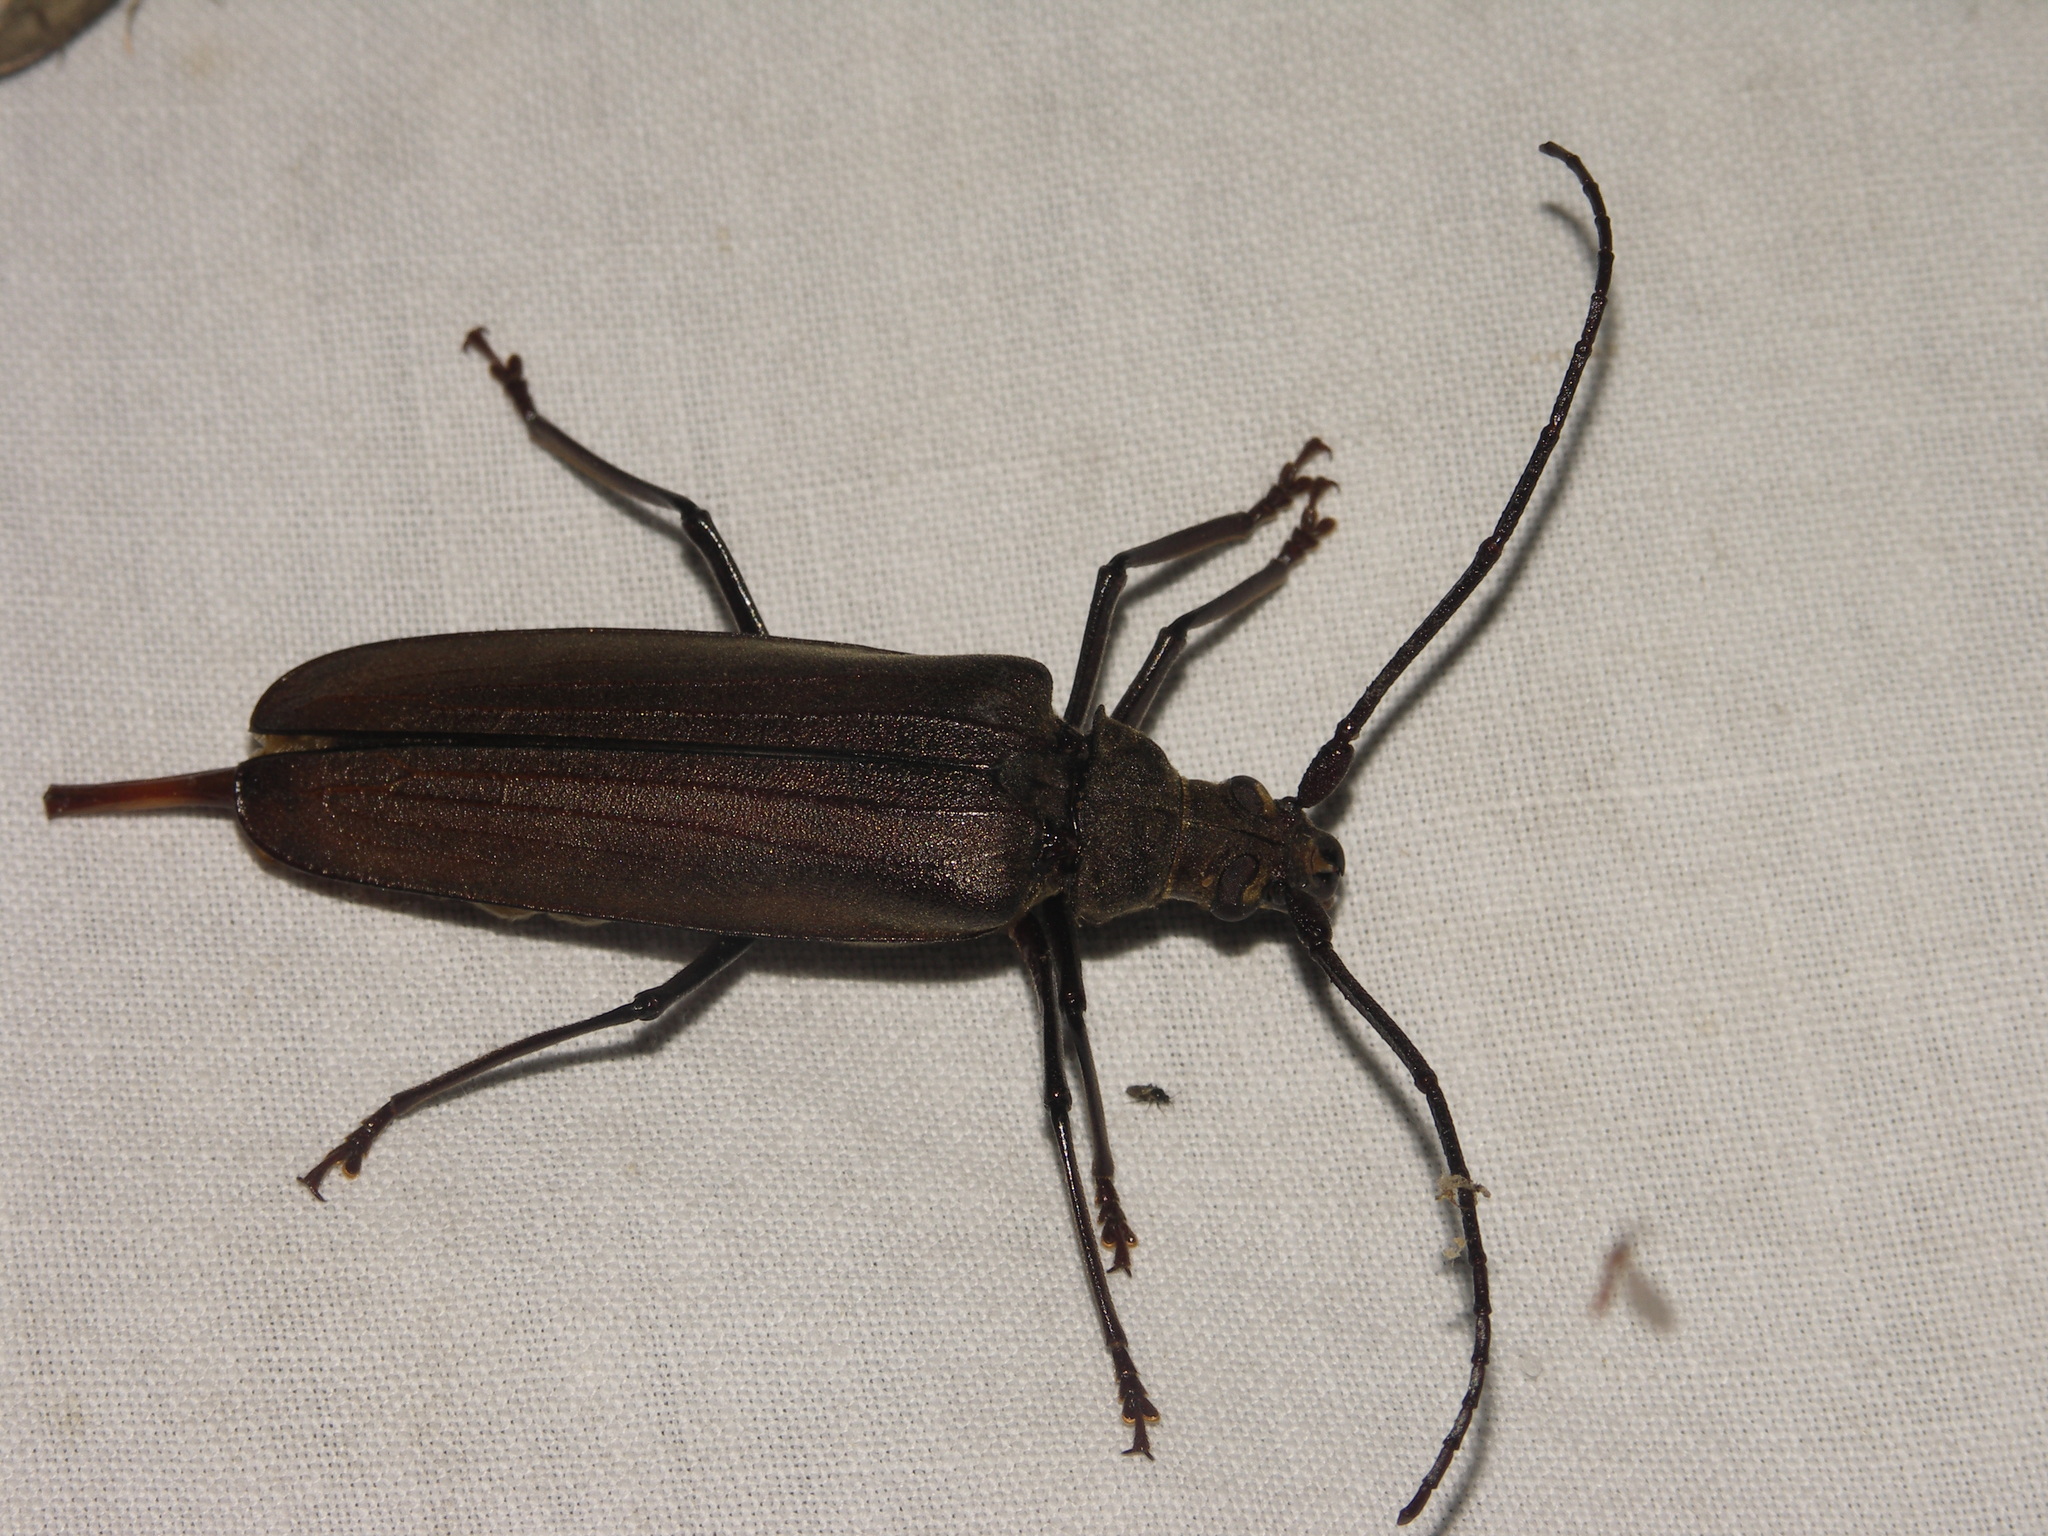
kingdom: Animalia
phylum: Arthropoda
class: Insecta
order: Coleoptera
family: Cerambycidae
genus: Aegosoma
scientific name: Aegosoma scabricorne
